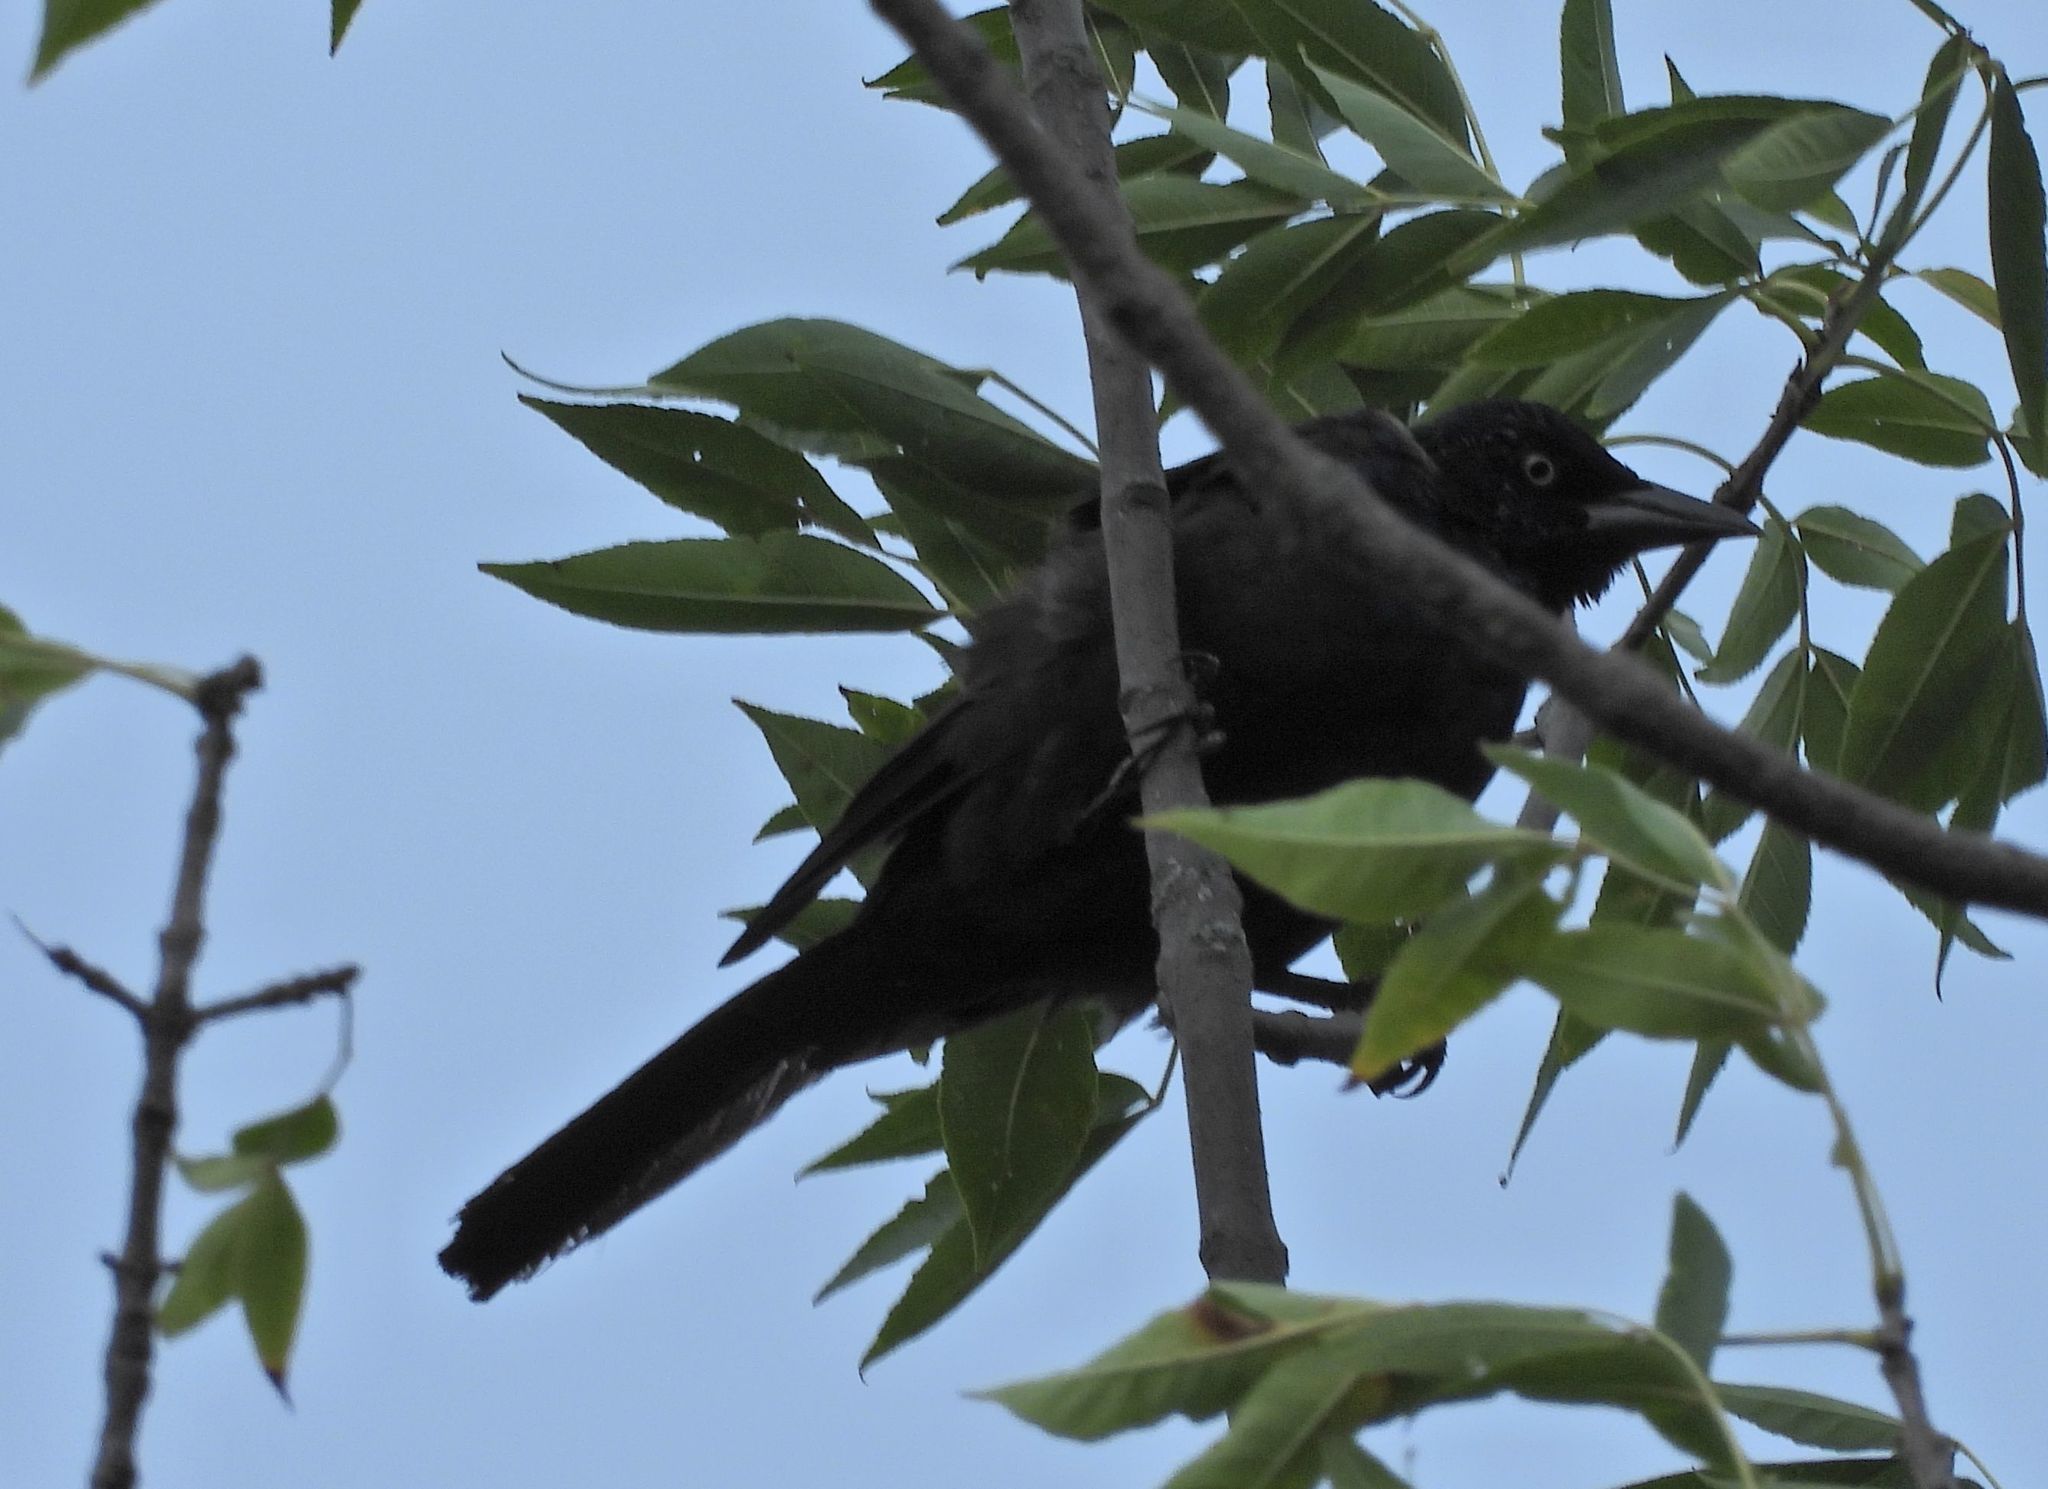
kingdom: Animalia
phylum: Chordata
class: Aves
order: Passeriformes
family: Icteridae
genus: Quiscalus
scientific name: Quiscalus quiscula
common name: Common grackle
